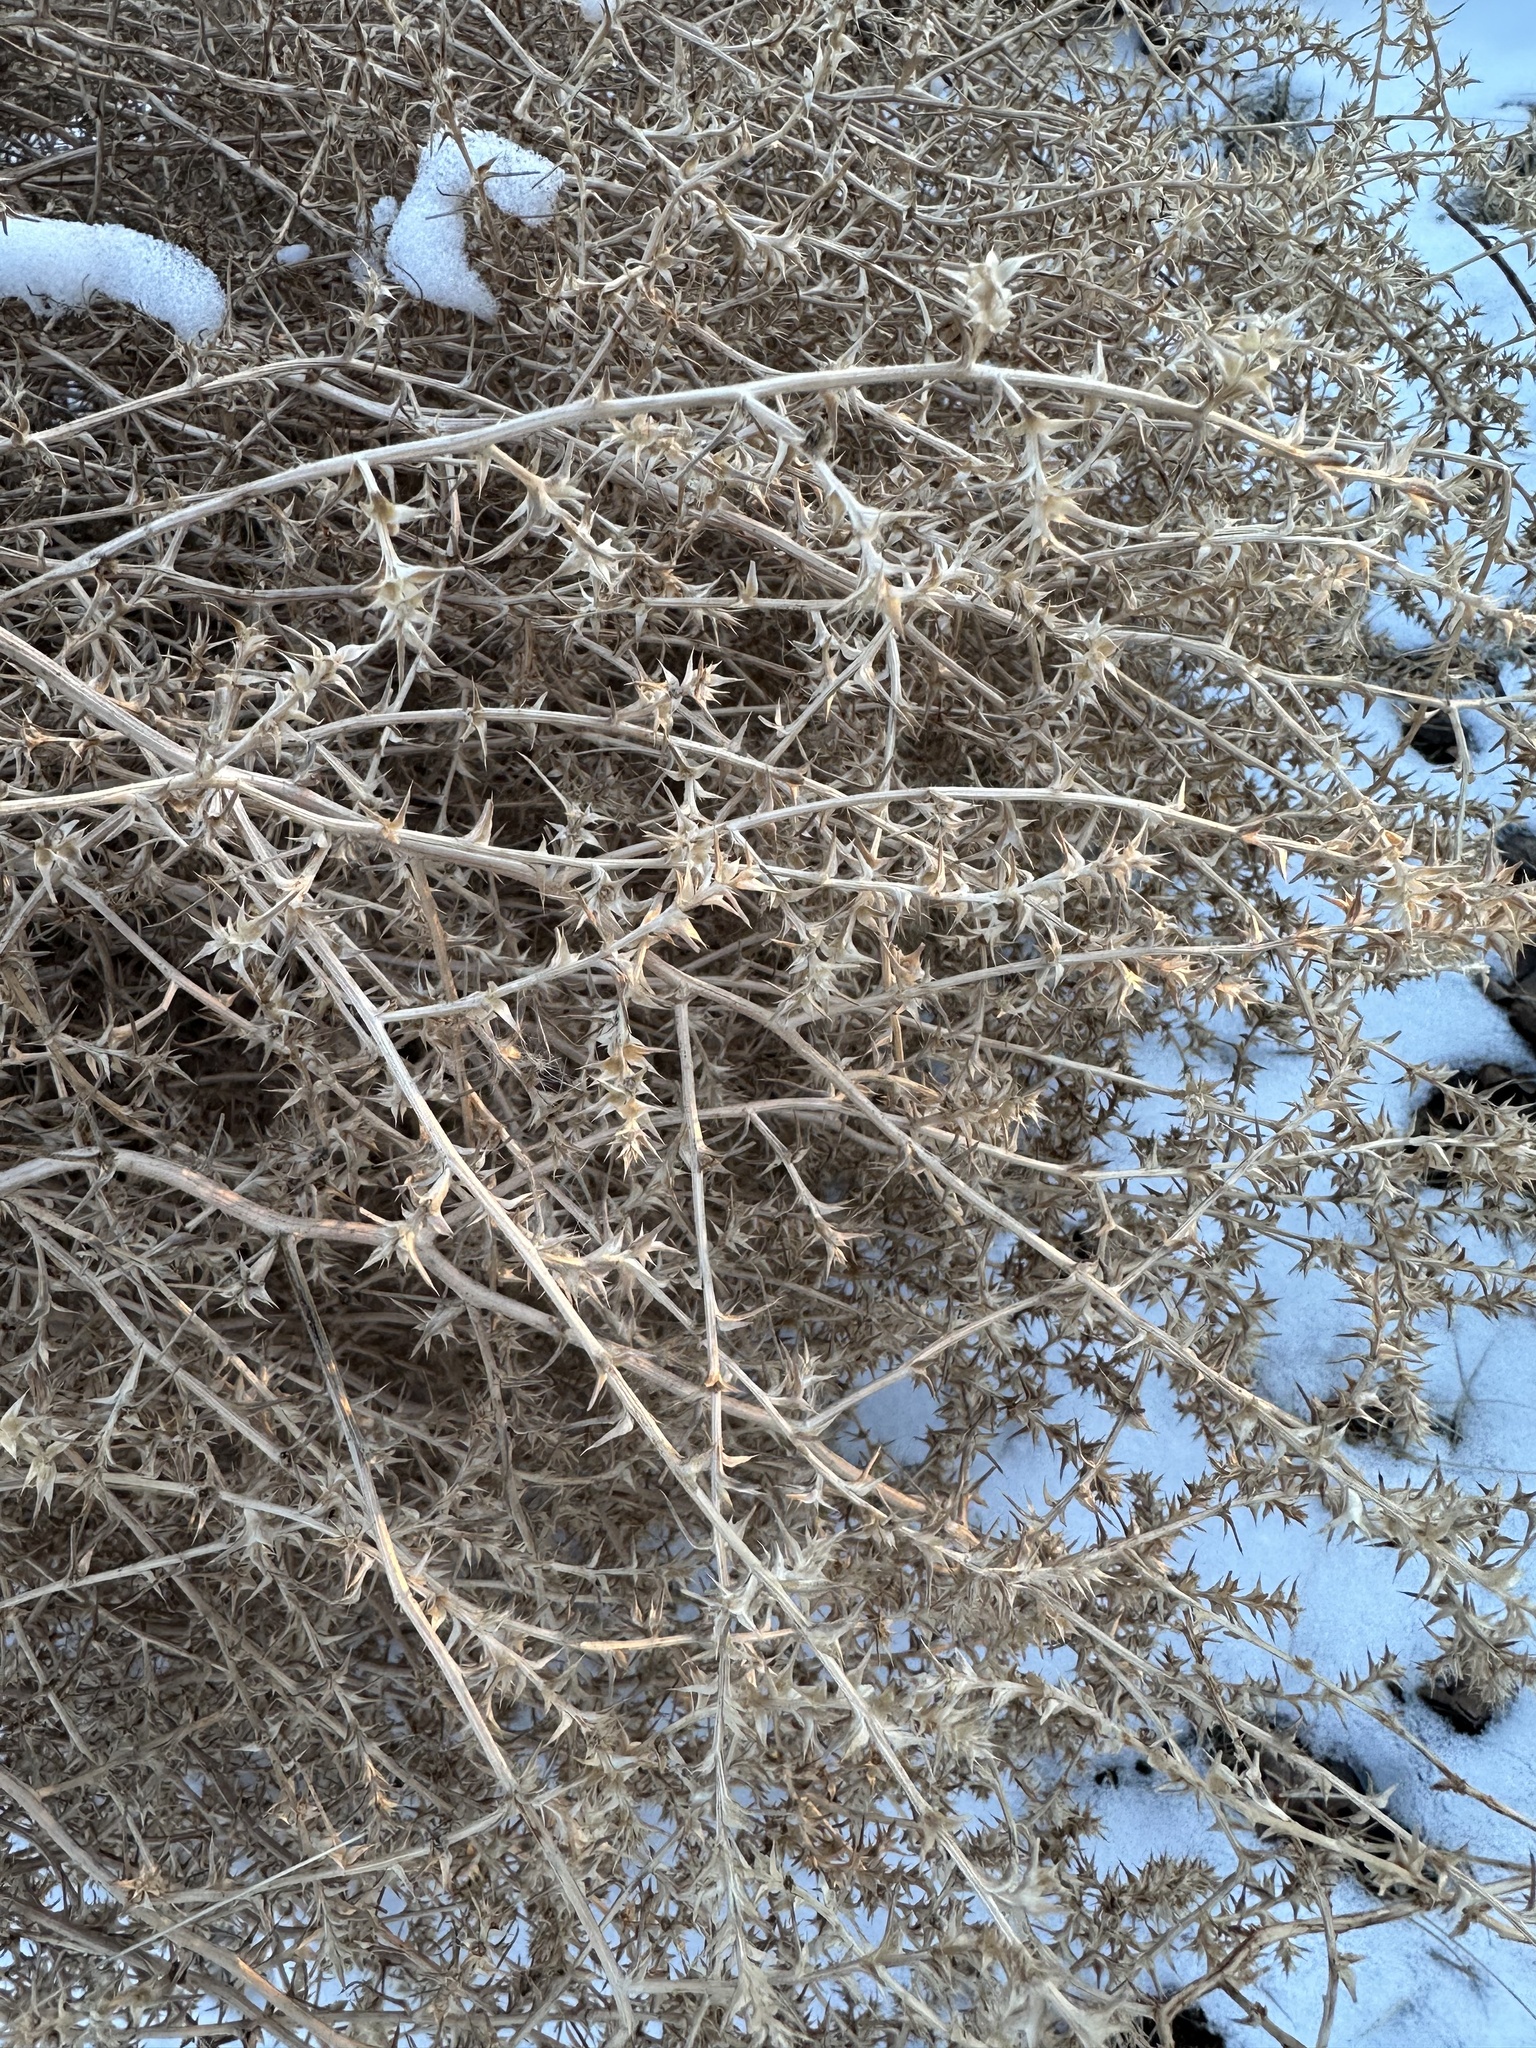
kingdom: Plantae
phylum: Tracheophyta
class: Magnoliopsida
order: Caryophyllales
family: Amaranthaceae
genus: Salsola
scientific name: Salsola tragus
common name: Prickly russian thistle
